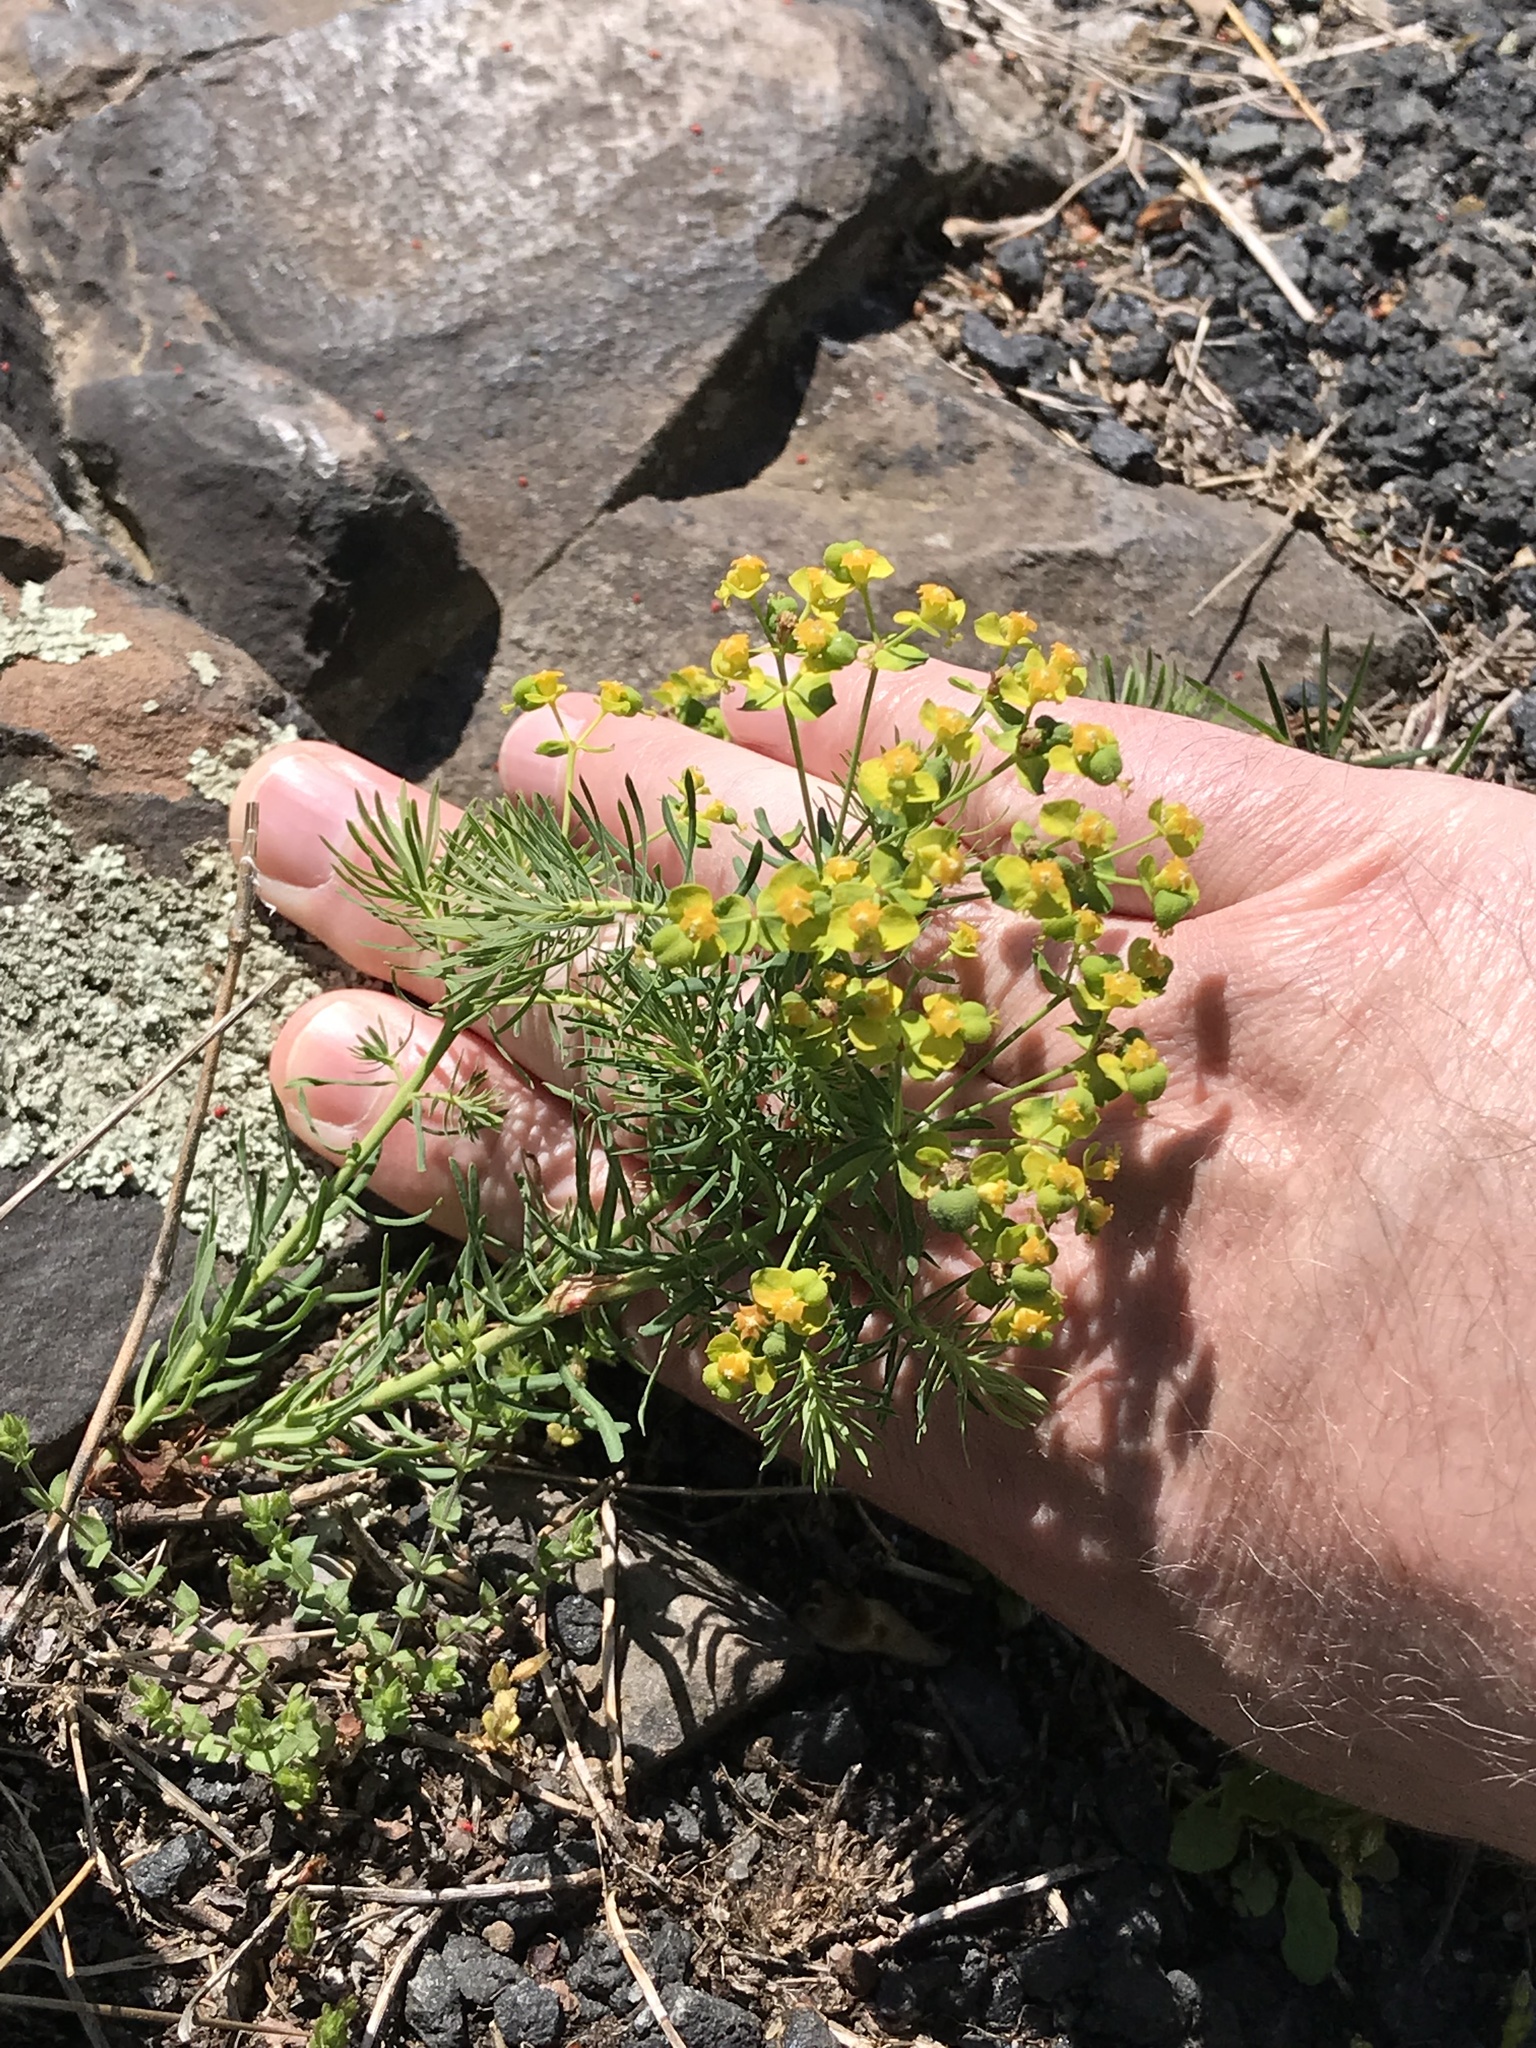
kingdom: Plantae
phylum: Tracheophyta
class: Magnoliopsida
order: Malpighiales
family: Euphorbiaceae
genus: Euphorbia
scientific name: Euphorbia cyparissias
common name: Cypress spurge
